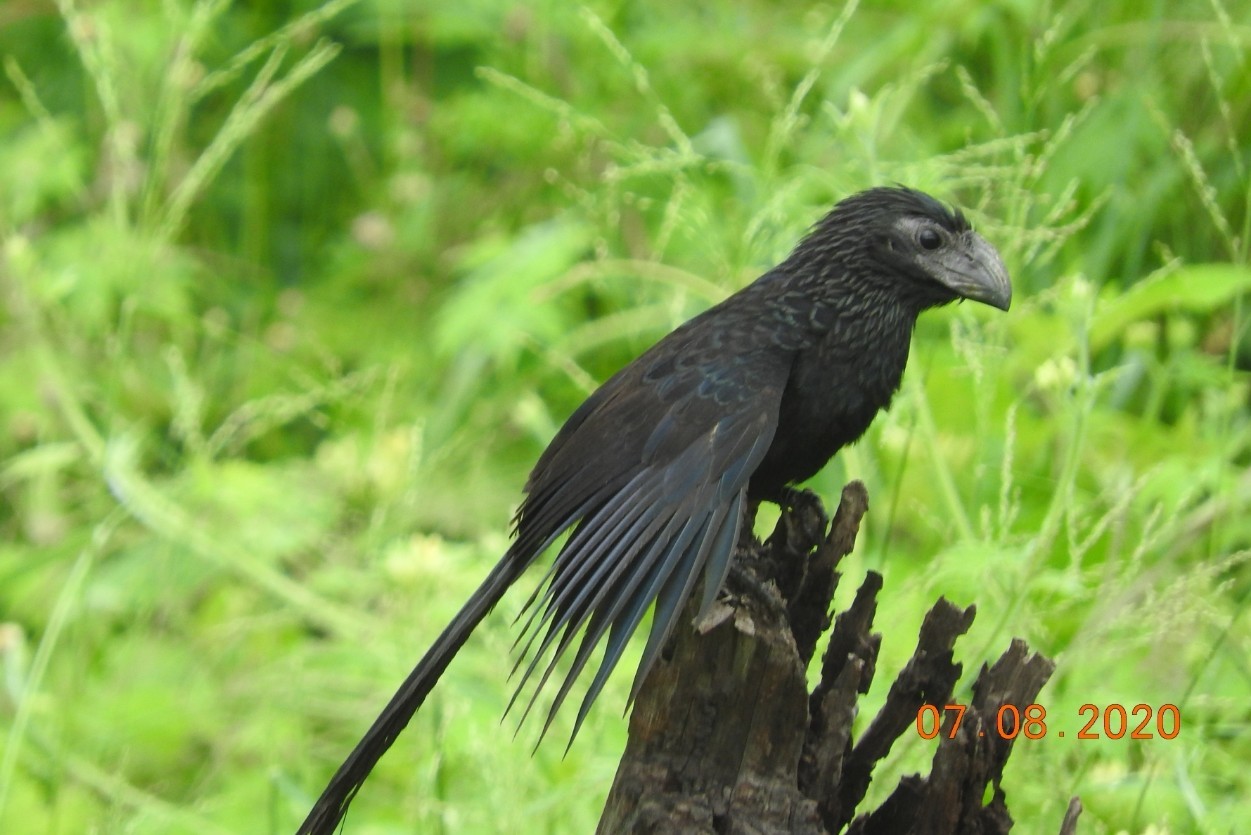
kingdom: Animalia
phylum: Chordata
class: Aves
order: Cuculiformes
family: Cuculidae
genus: Crotophaga
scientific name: Crotophaga sulcirostris
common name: Groove-billed ani
